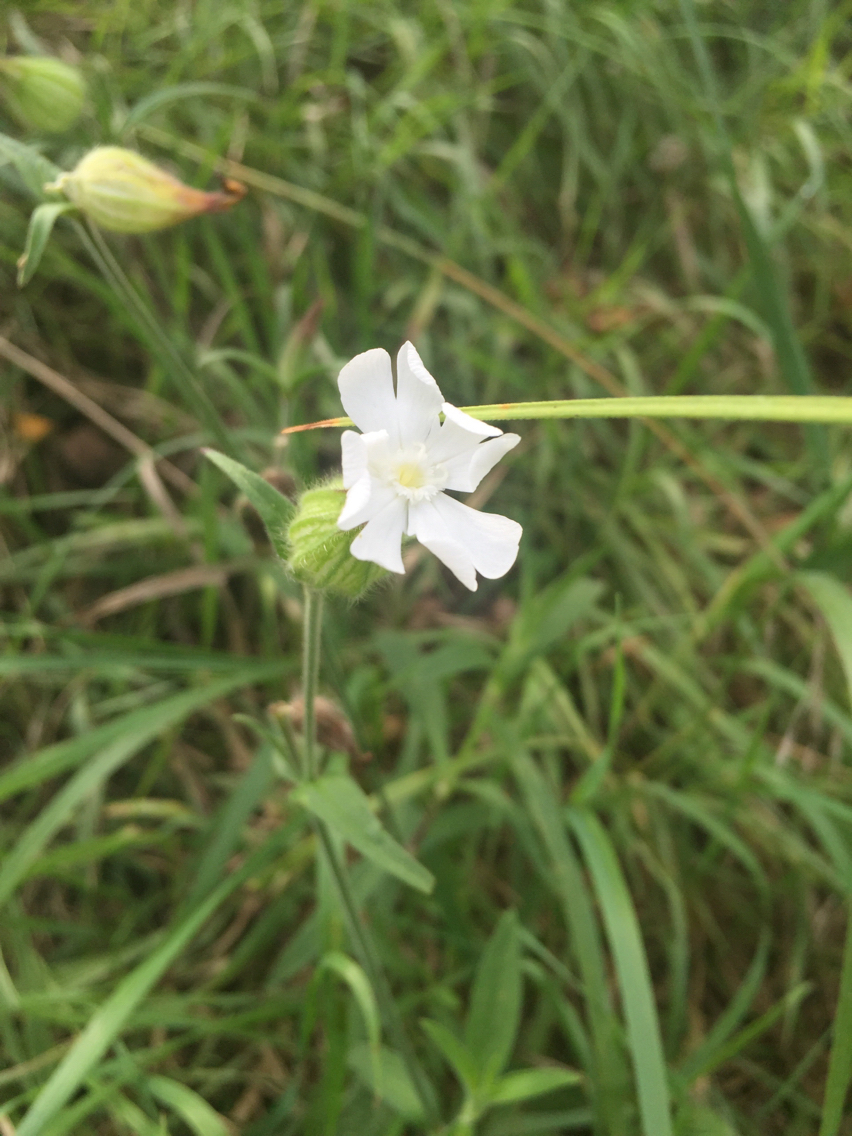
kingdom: Plantae
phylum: Tracheophyta
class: Magnoliopsida
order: Caryophyllales
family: Caryophyllaceae
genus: Silene
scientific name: Silene latifolia
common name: White campion
